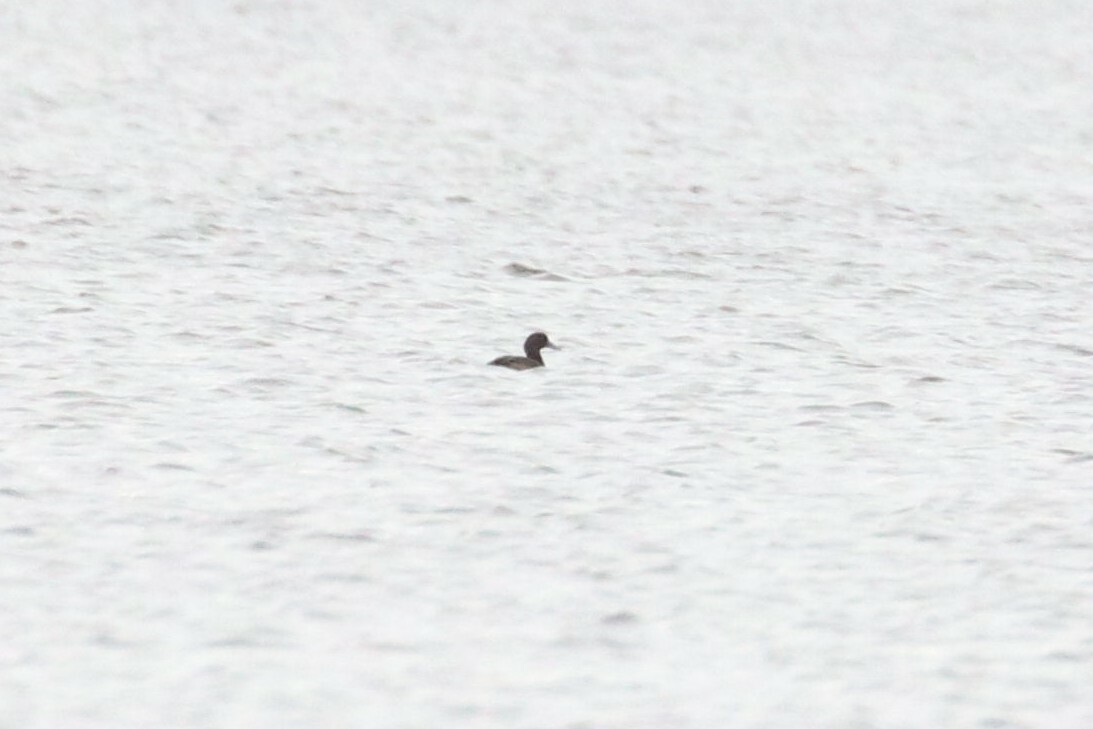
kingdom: Animalia
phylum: Chordata
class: Aves
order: Anseriformes
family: Anatidae
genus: Aythya
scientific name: Aythya fuligula
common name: Tufted duck
